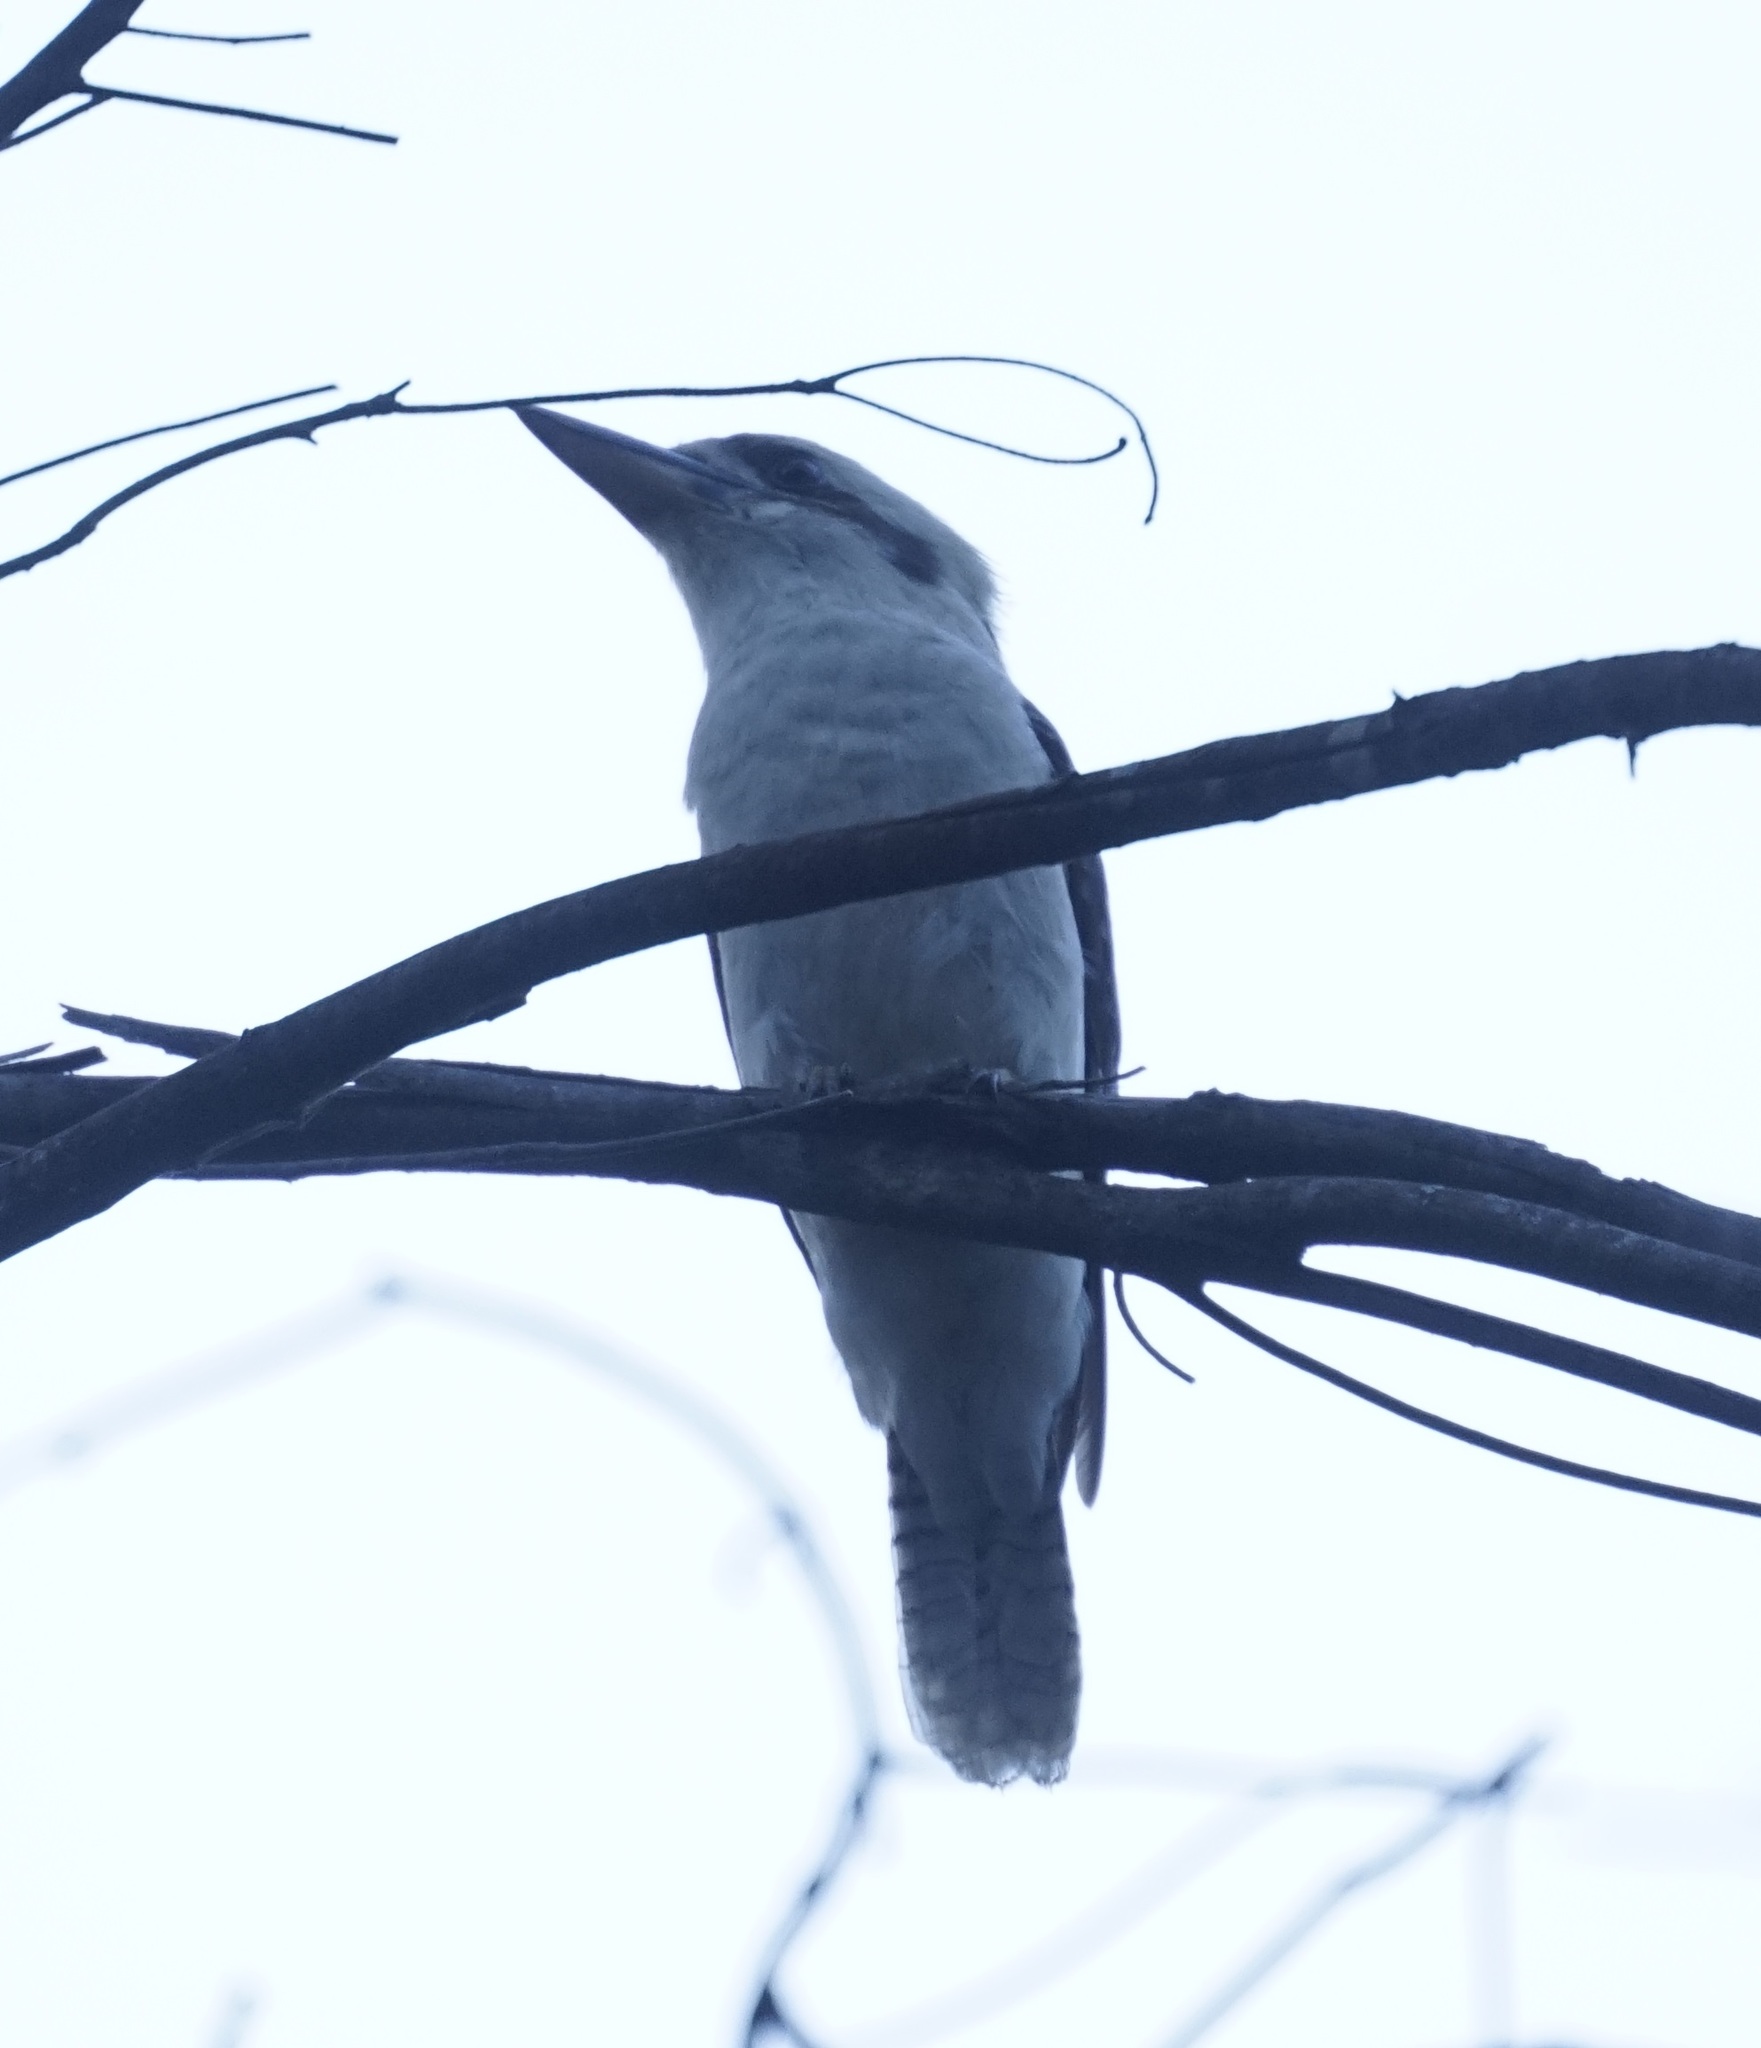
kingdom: Animalia
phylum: Chordata
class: Aves
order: Coraciiformes
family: Alcedinidae
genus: Dacelo
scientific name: Dacelo novaeguineae
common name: Laughing kookaburra
